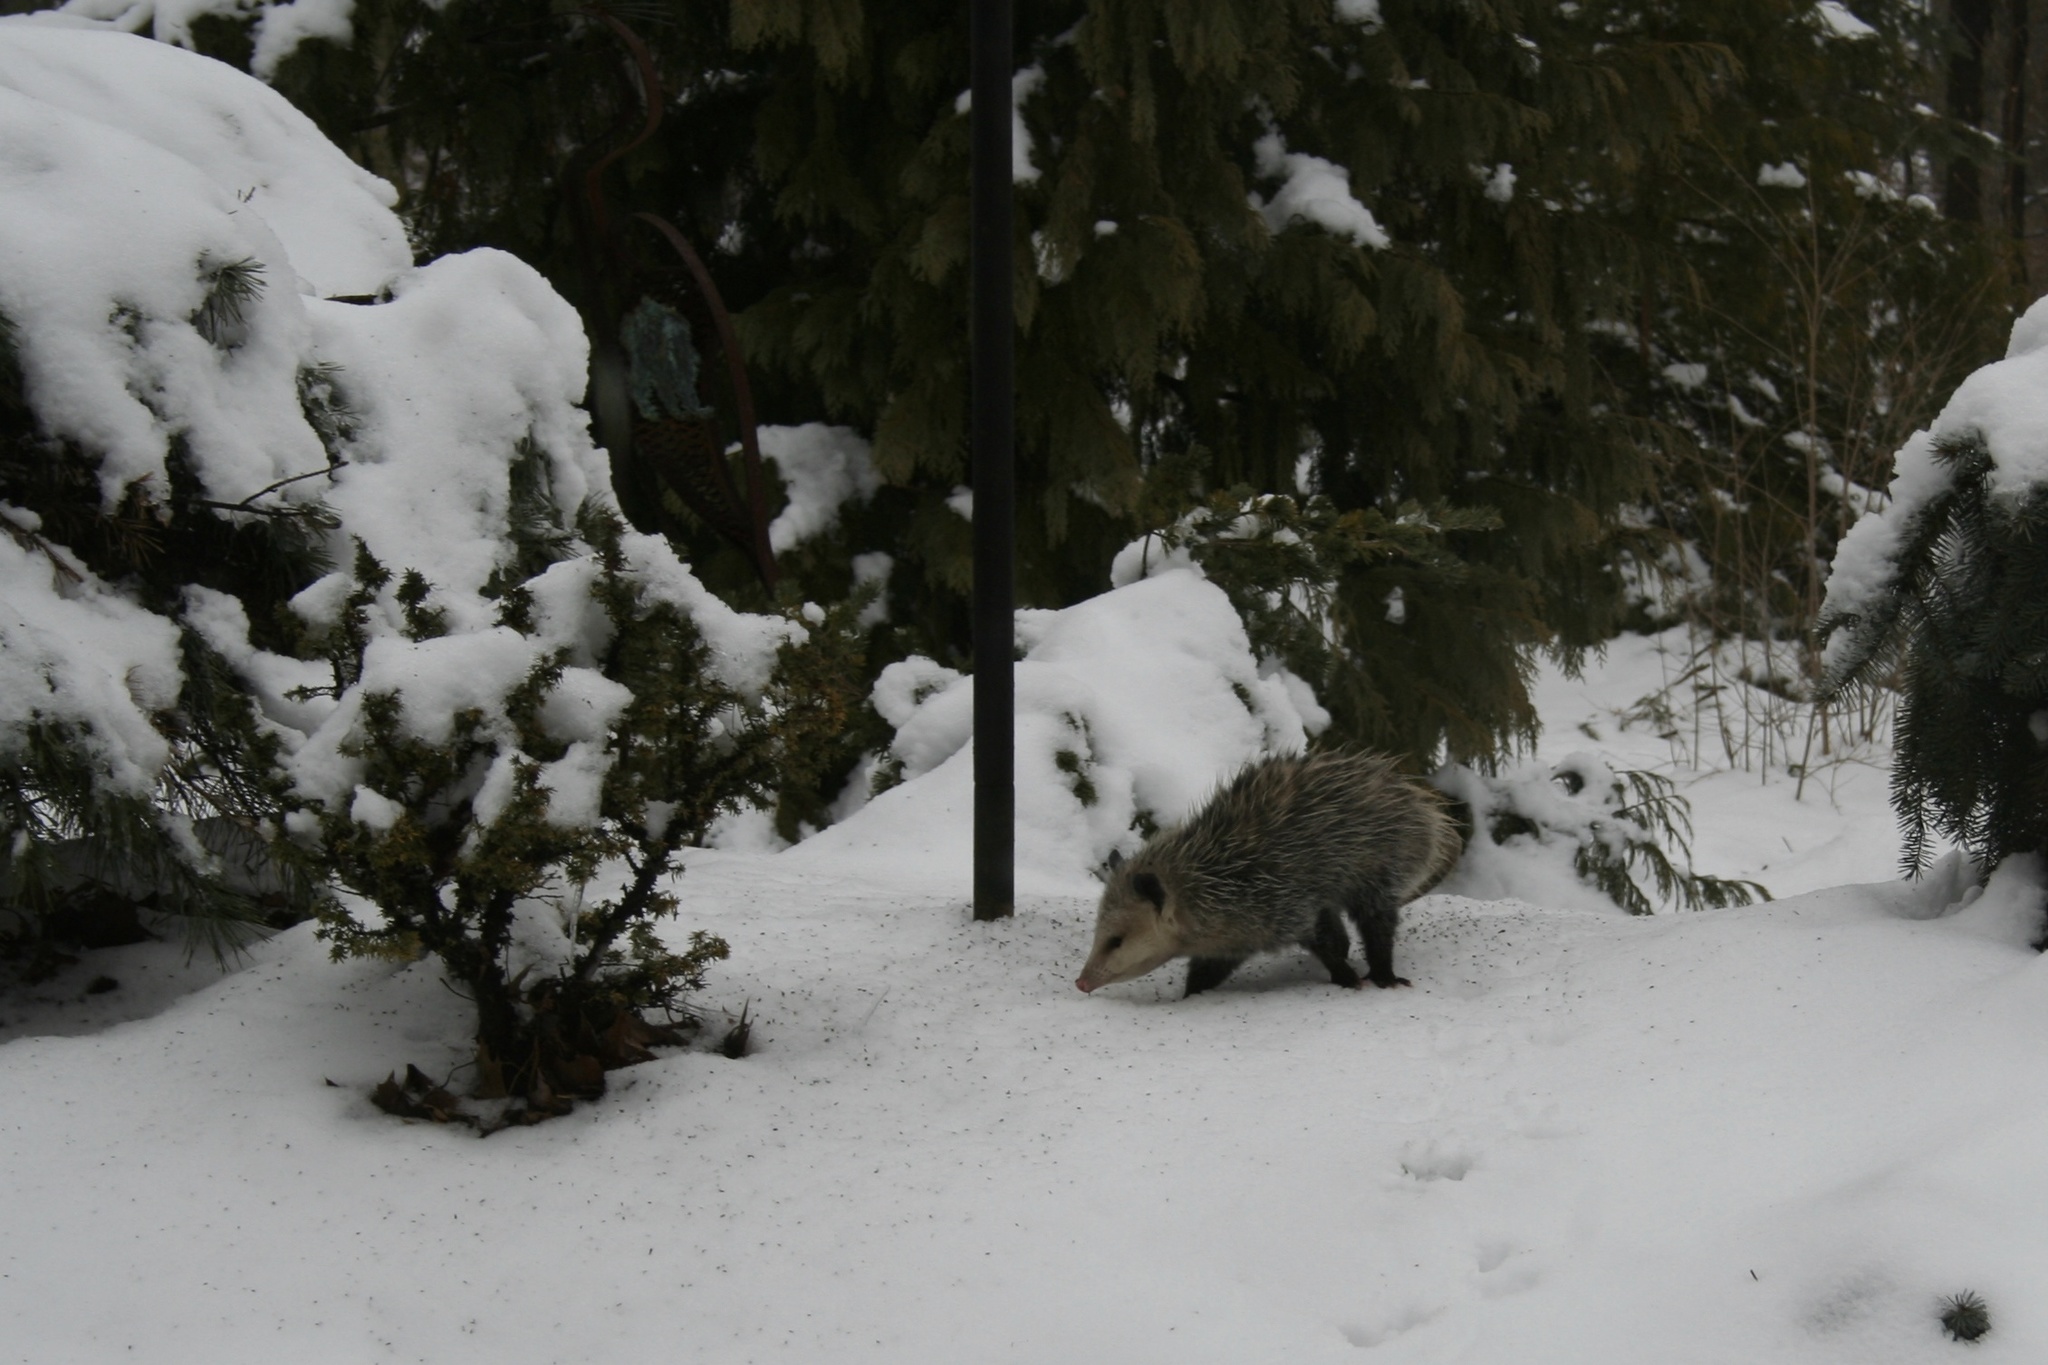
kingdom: Animalia
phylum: Chordata
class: Mammalia
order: Didelphimorphia
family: Didelphidae
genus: Didelphis
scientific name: Didelphis virginiana
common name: Virginia opossum
